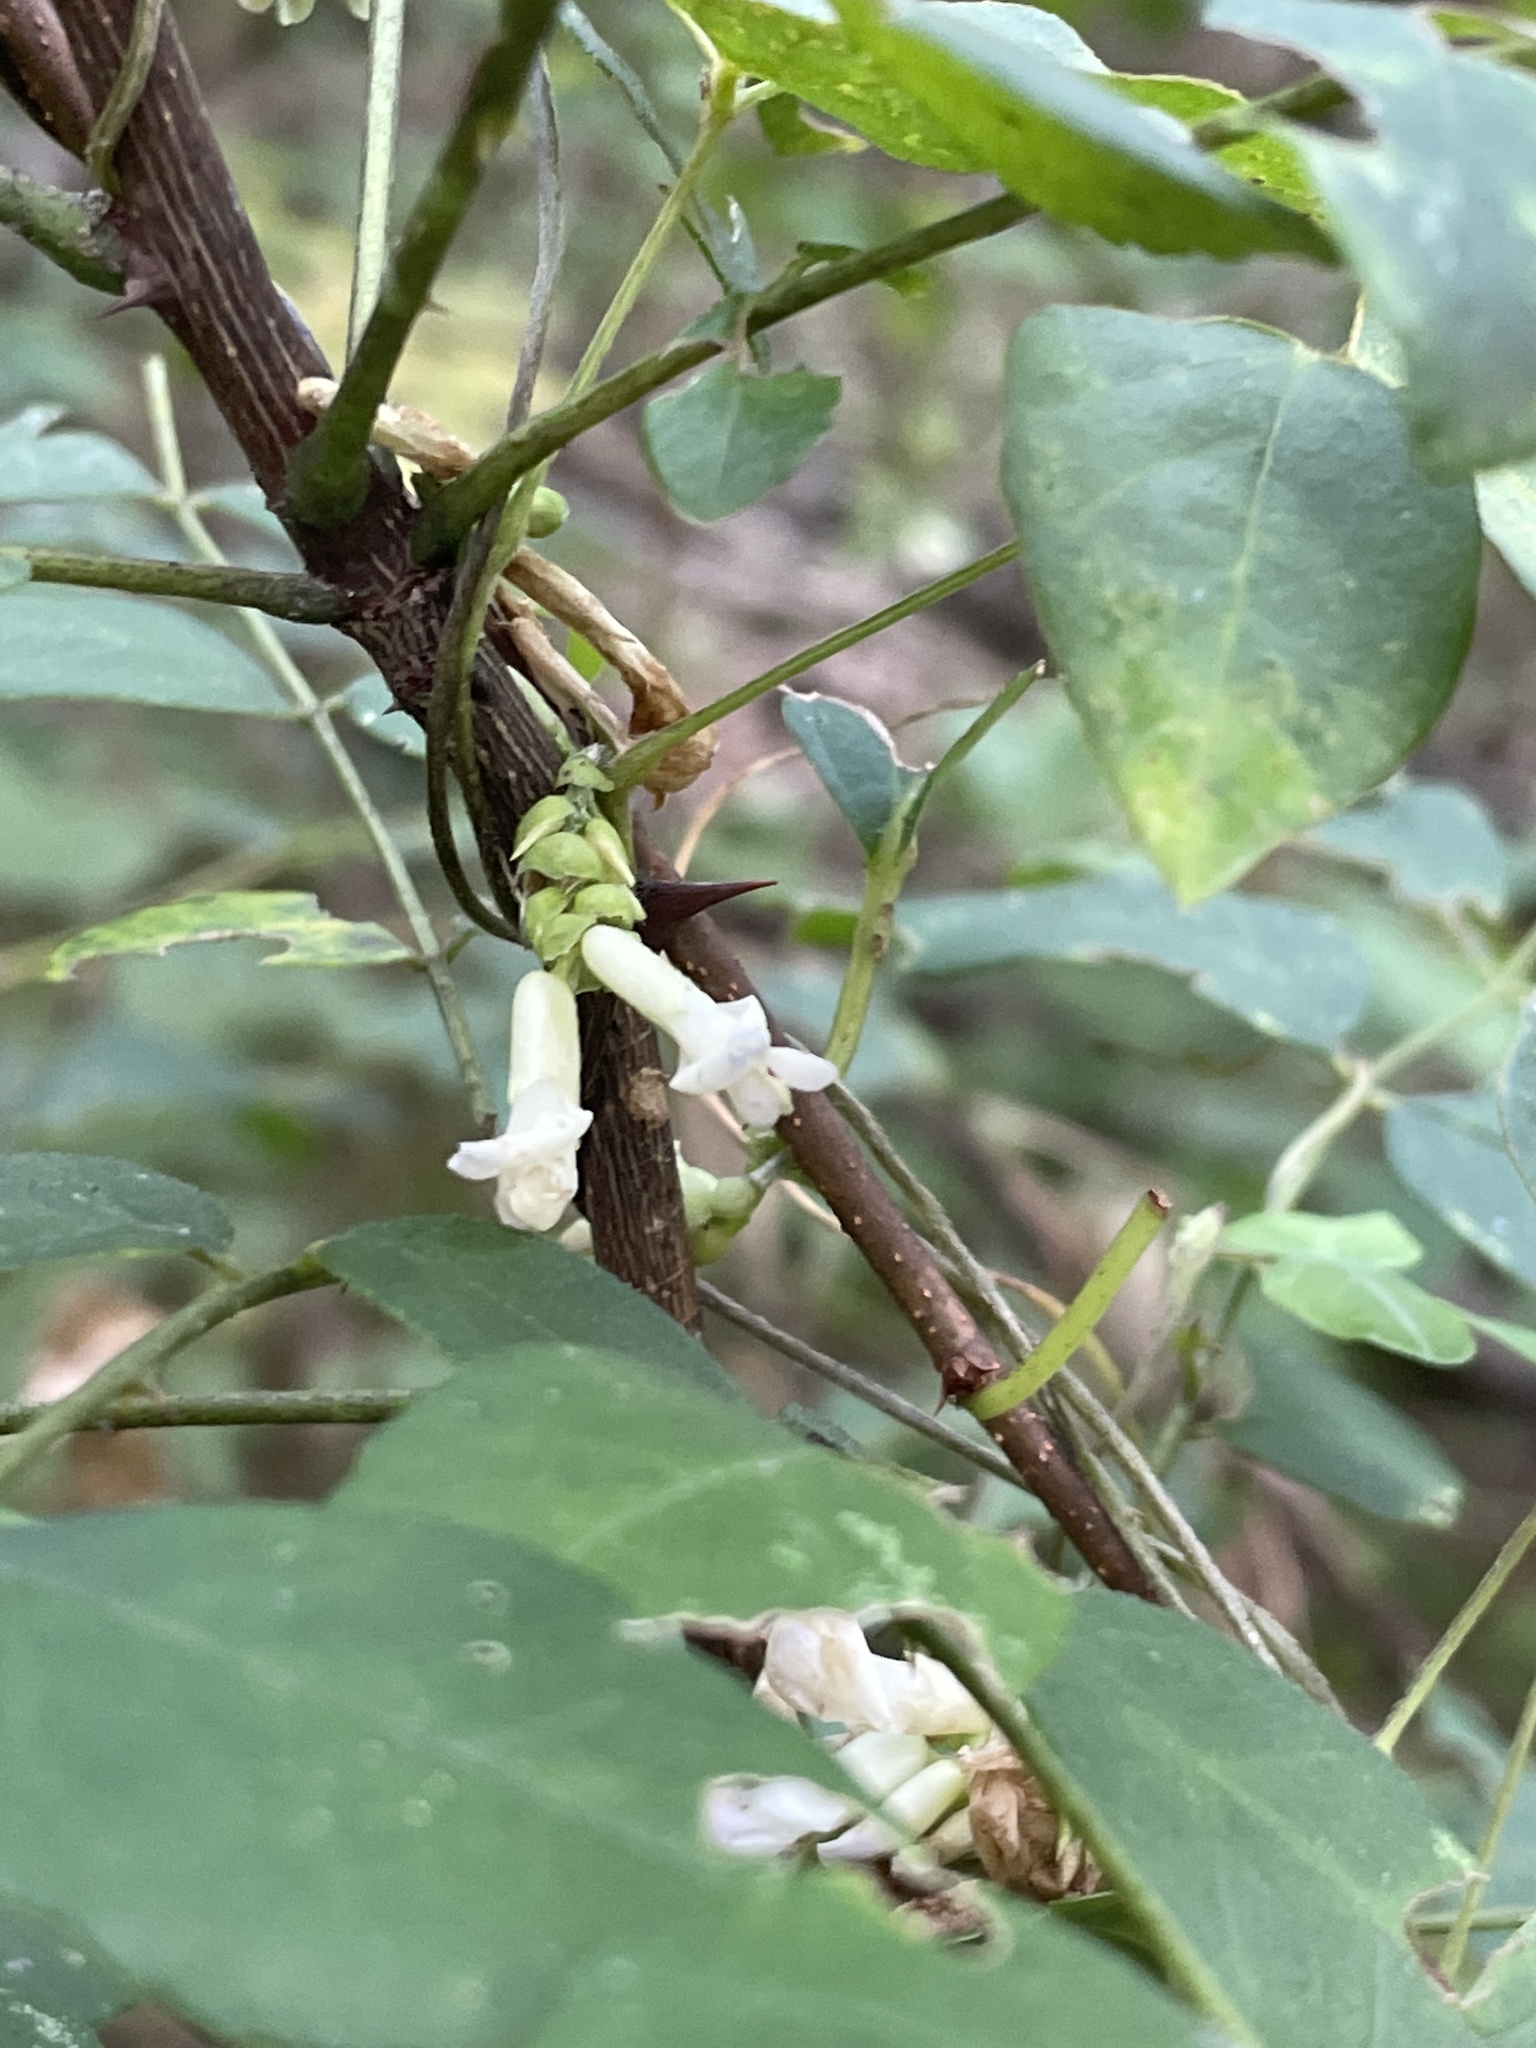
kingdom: Plantae
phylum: Tracheophyta
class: Magnoliopsida
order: Fabales
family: Fabaceae
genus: Amphicarpaea
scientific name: Amphicarpaea bracteata
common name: American hog peanut
